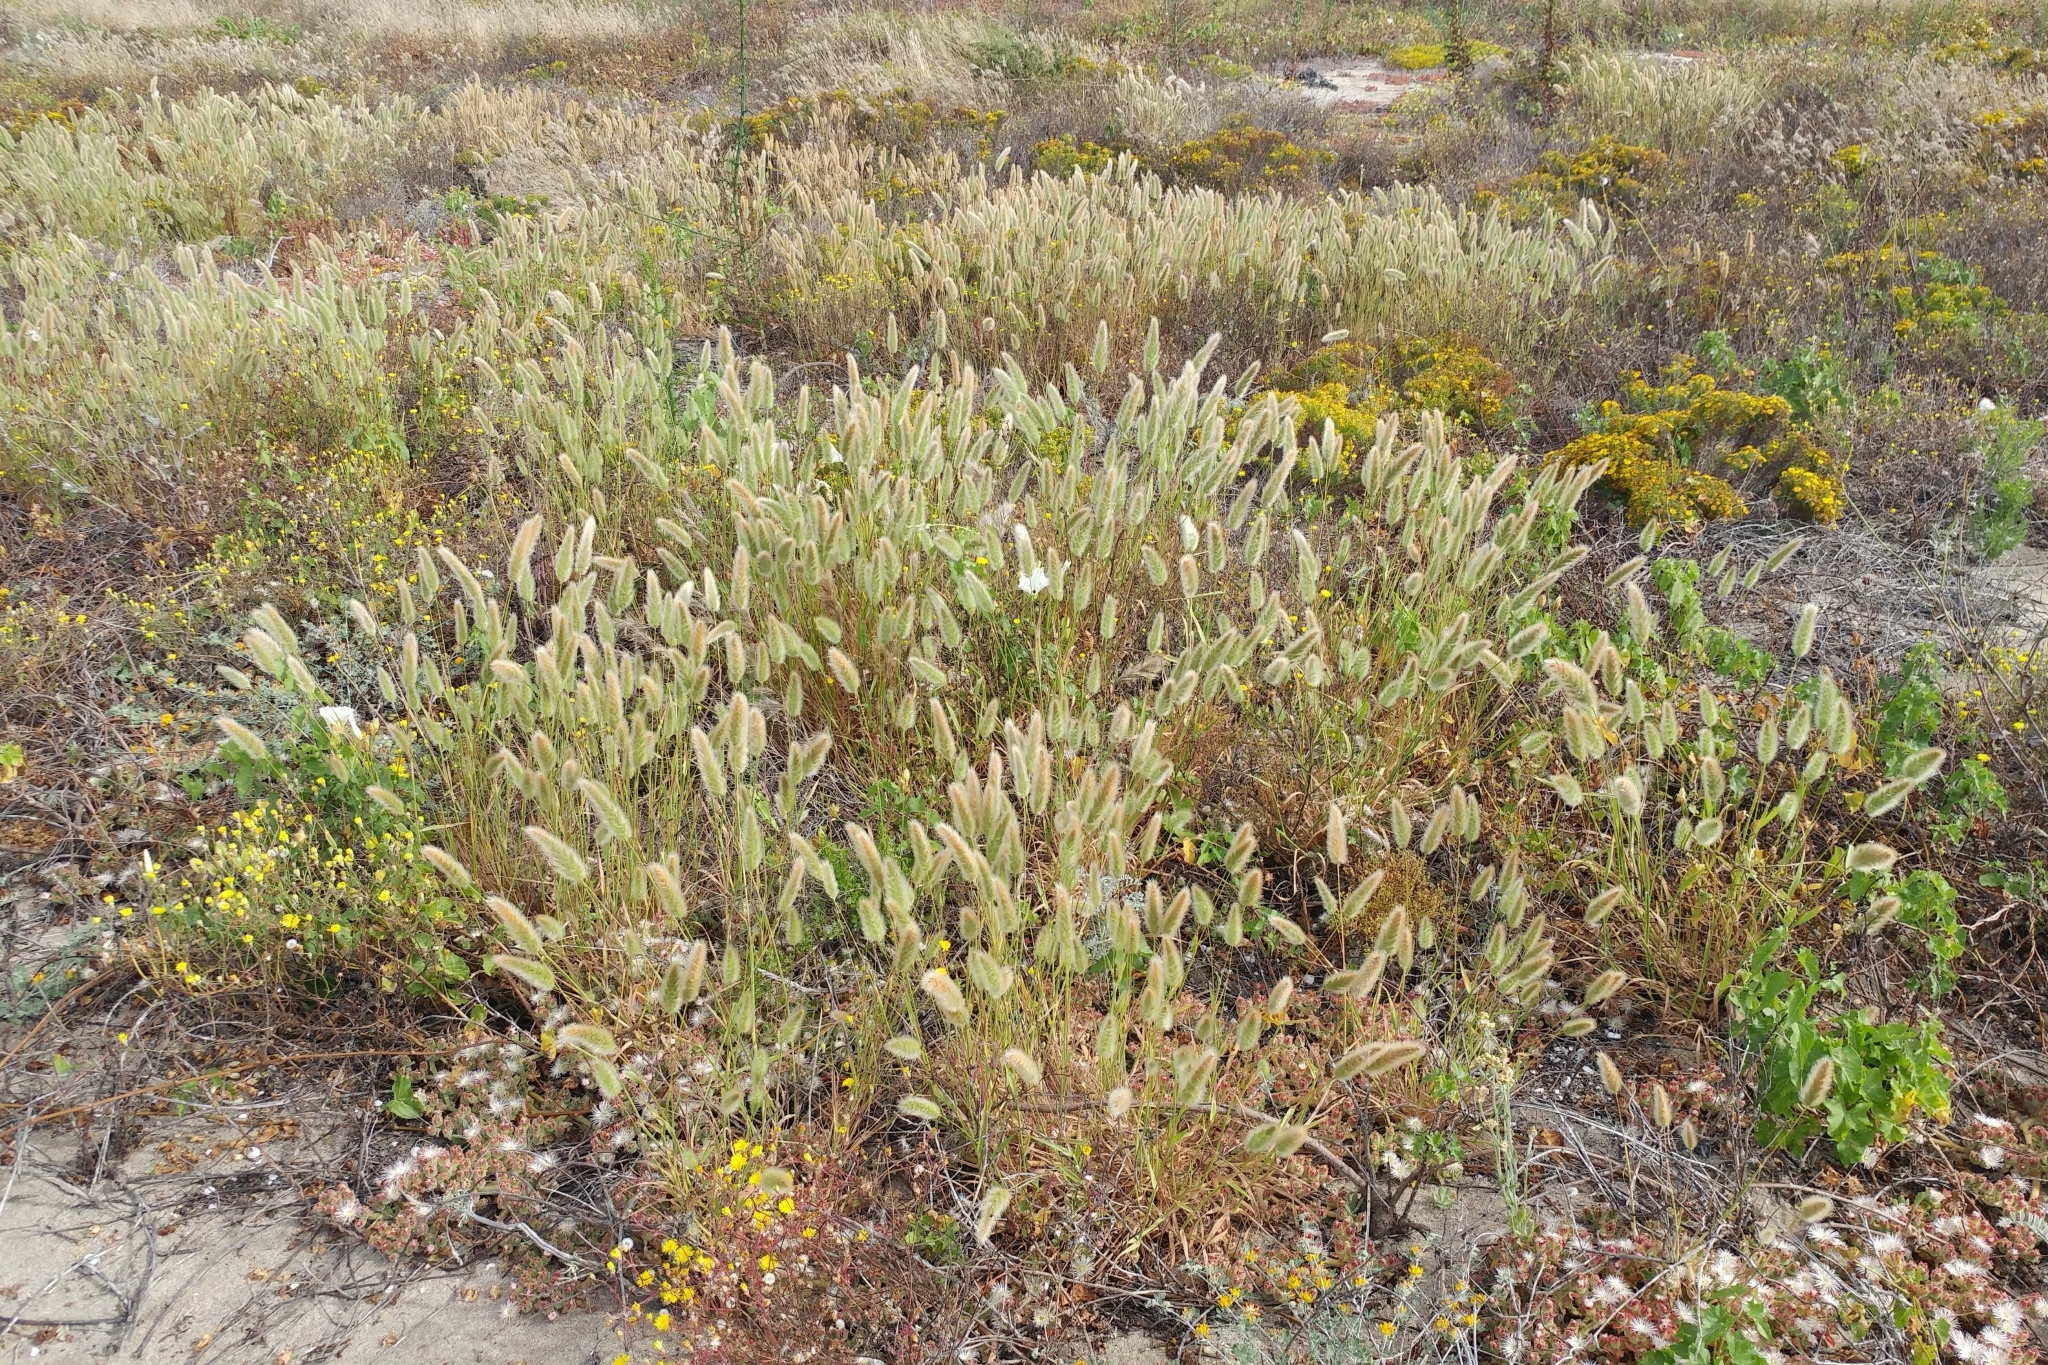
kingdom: Plantae
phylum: Tracheophyta
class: Liliopsida
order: Poales
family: Poaceae
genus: Polypogon
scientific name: Polypogon monspeliensis
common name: Annual rabbitsfoot grass
